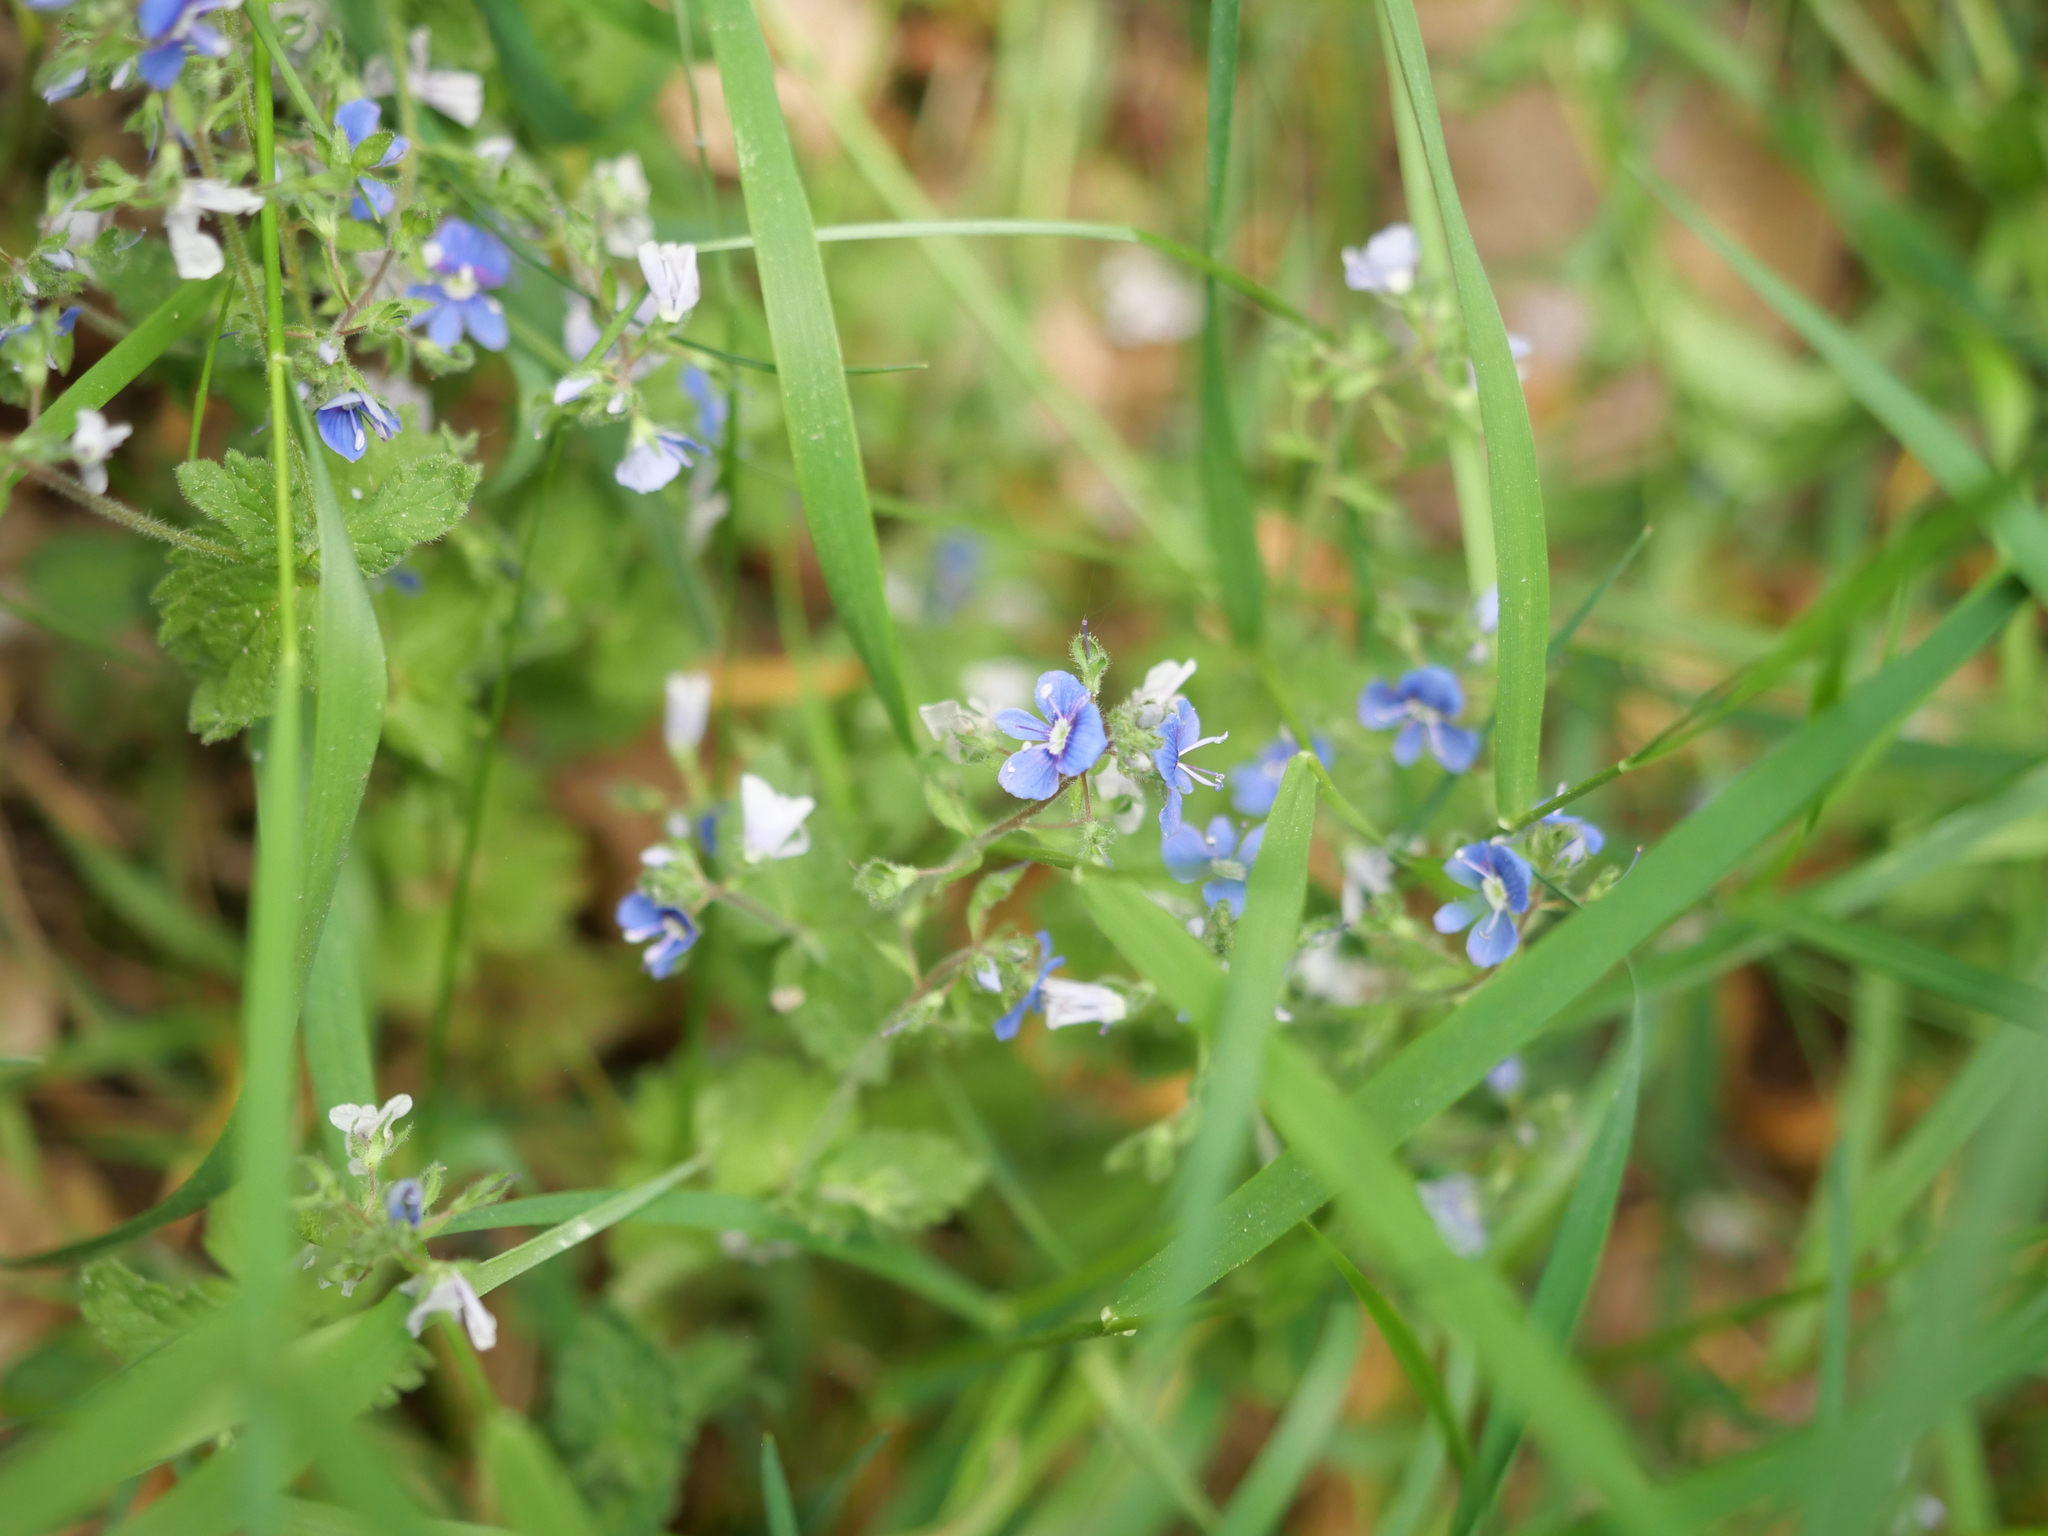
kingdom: Plantae
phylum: Tracheophyta
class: Magnoliopsida
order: Lamiales
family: Plantaginaceae
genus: Veronica
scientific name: Veronica chamaedrys
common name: Germander speedwell
